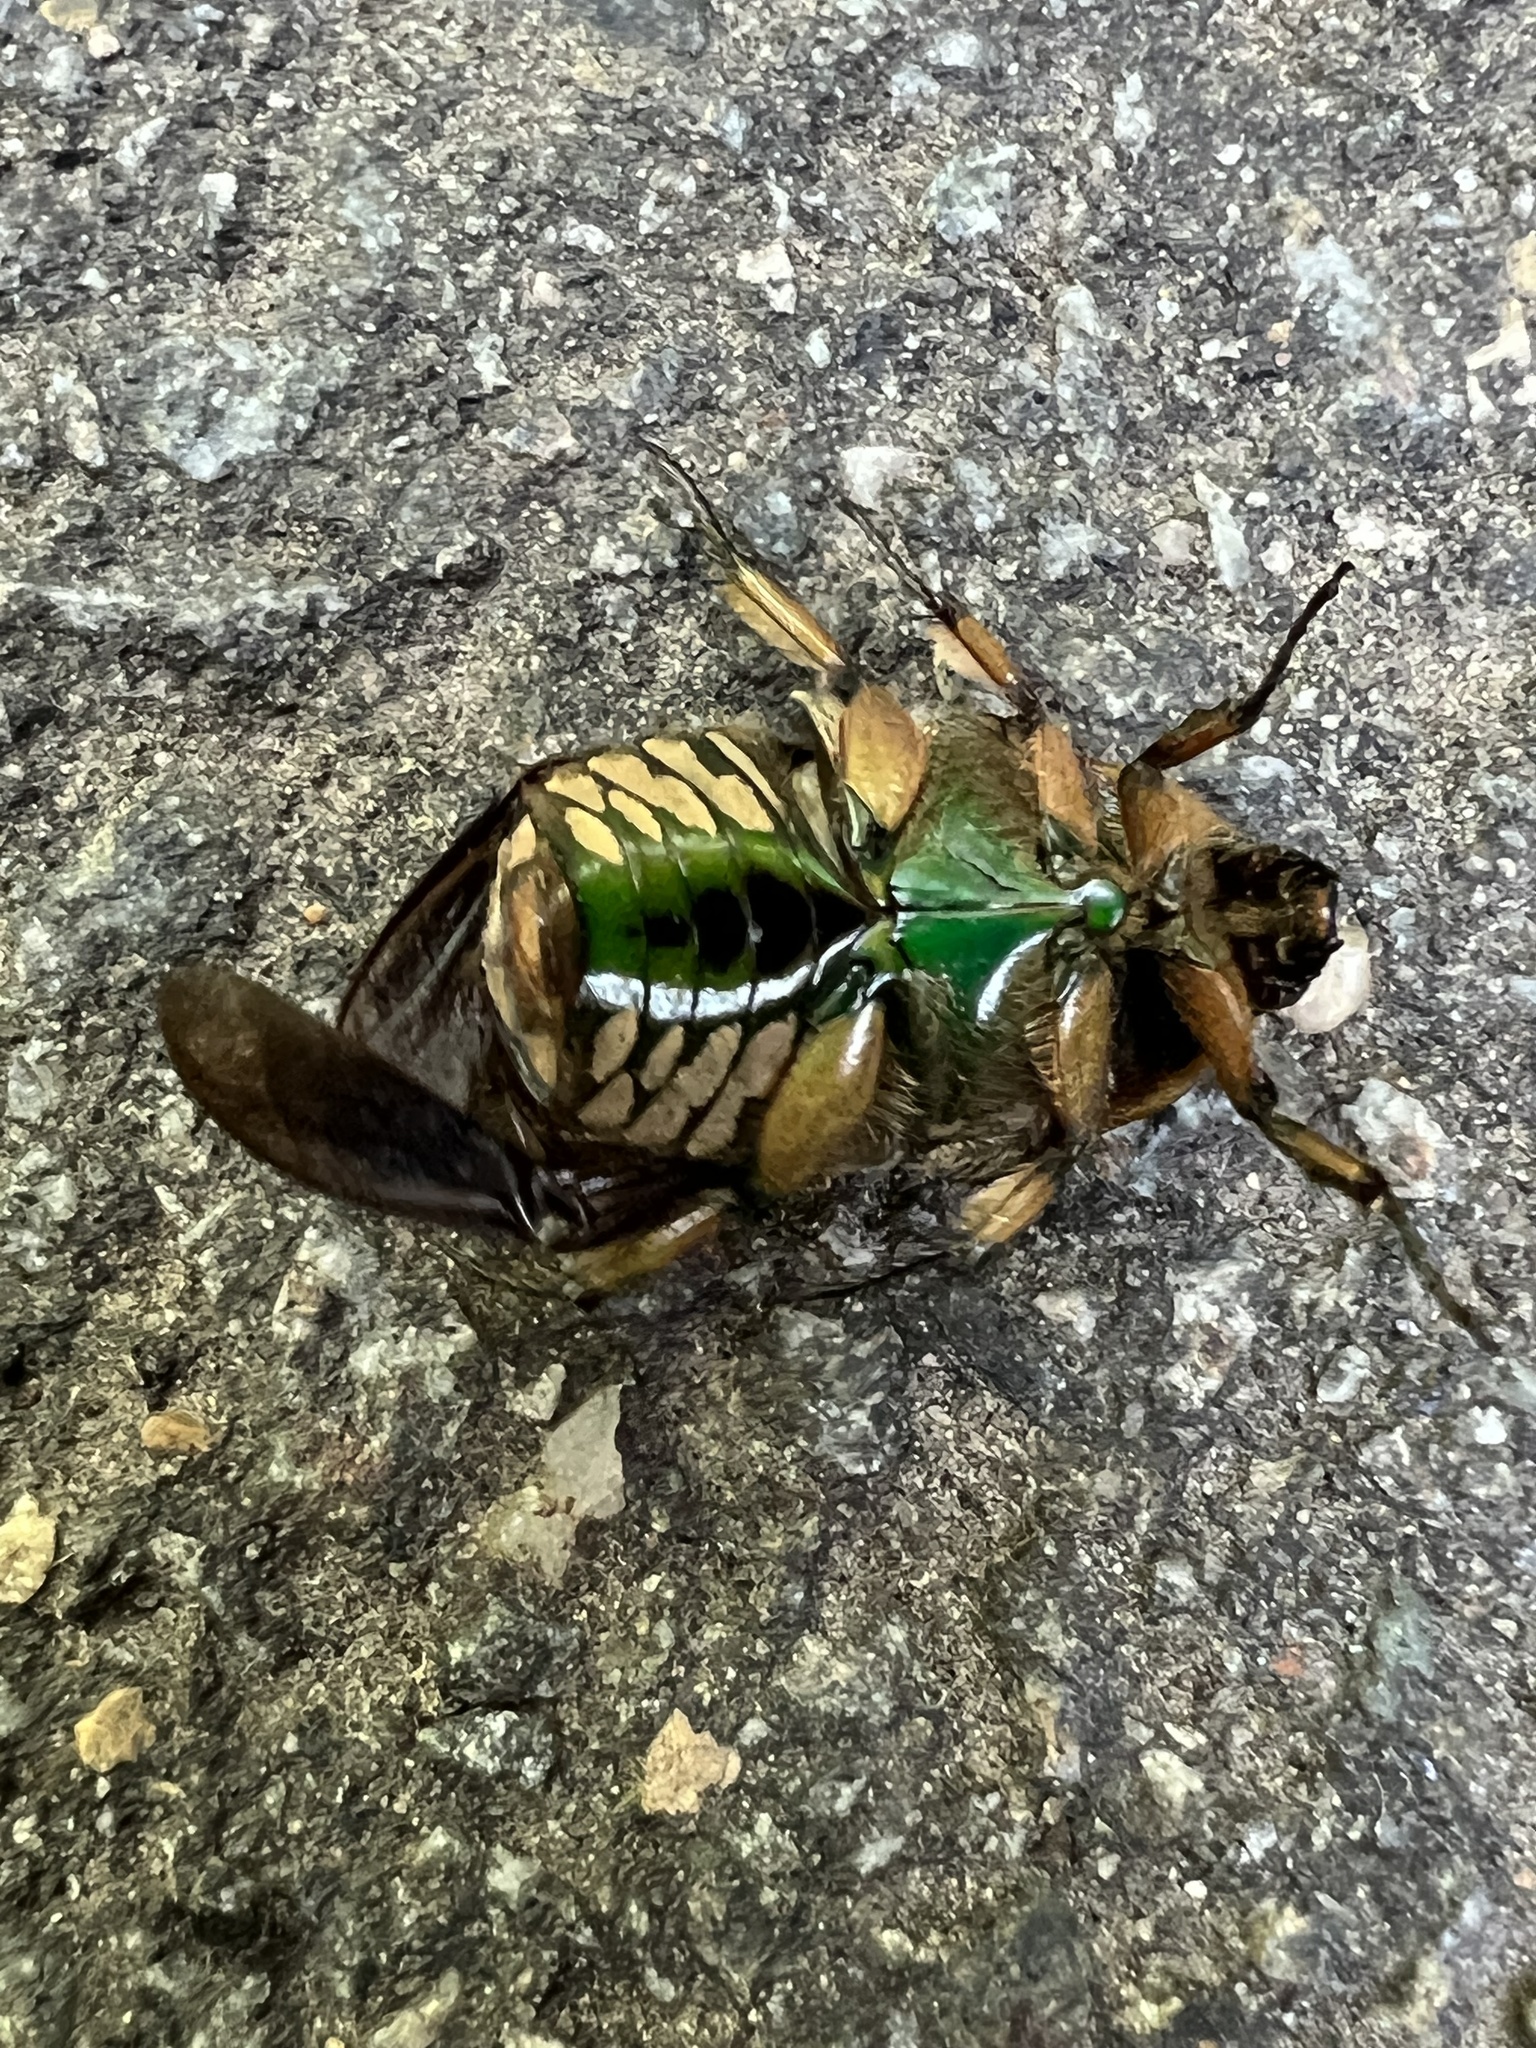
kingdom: Animalia
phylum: Arthropoda
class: Insecta
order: Coleoptera
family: Scarabaeidae
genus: Euphoria
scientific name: Euphoria fulgida
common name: Emerald euphoria
